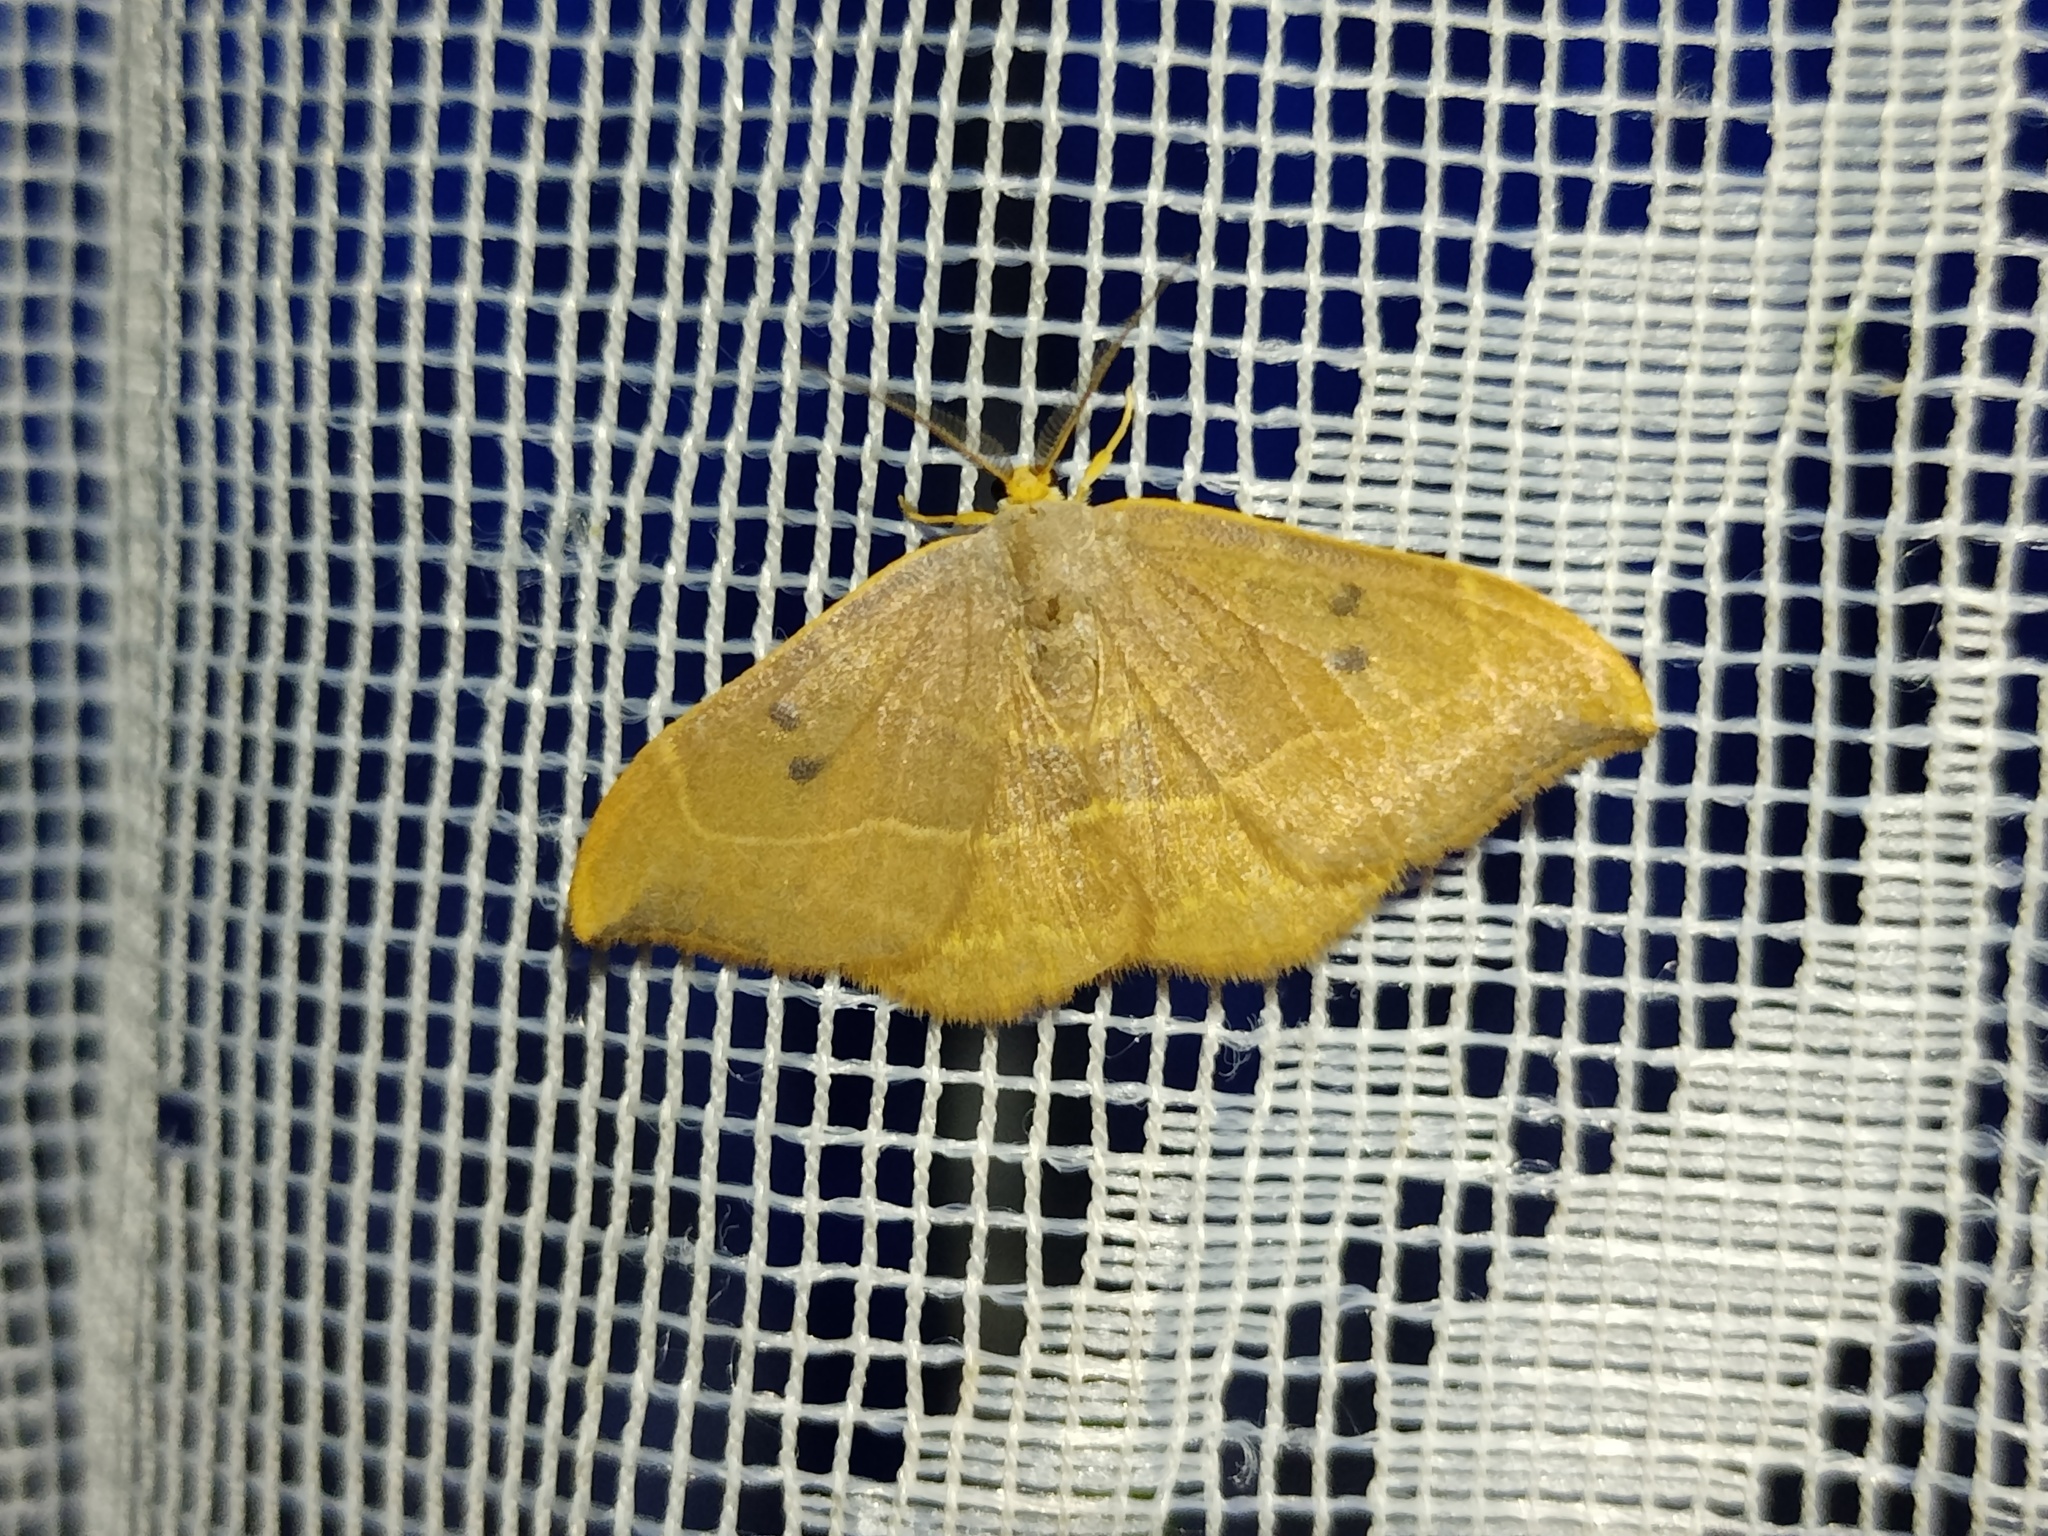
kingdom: Animalia
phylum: Arthropoda
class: Insecta
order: Lepidoptera
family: Drepanidae
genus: Watsonalla
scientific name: Watsonalla binaria
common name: Oak hook-tip
